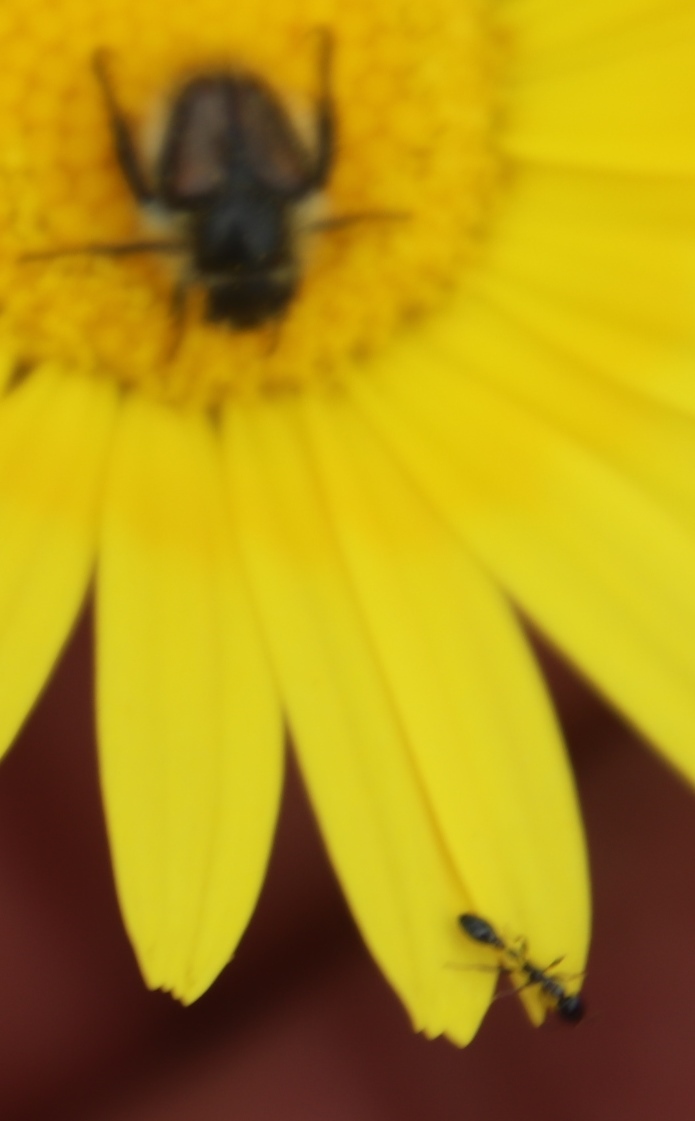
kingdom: Animalia
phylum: Arthropoda
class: Insecta
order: Hymenoptera
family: Formicidae
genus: Tetraponera
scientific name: Tetraponera clypeata
